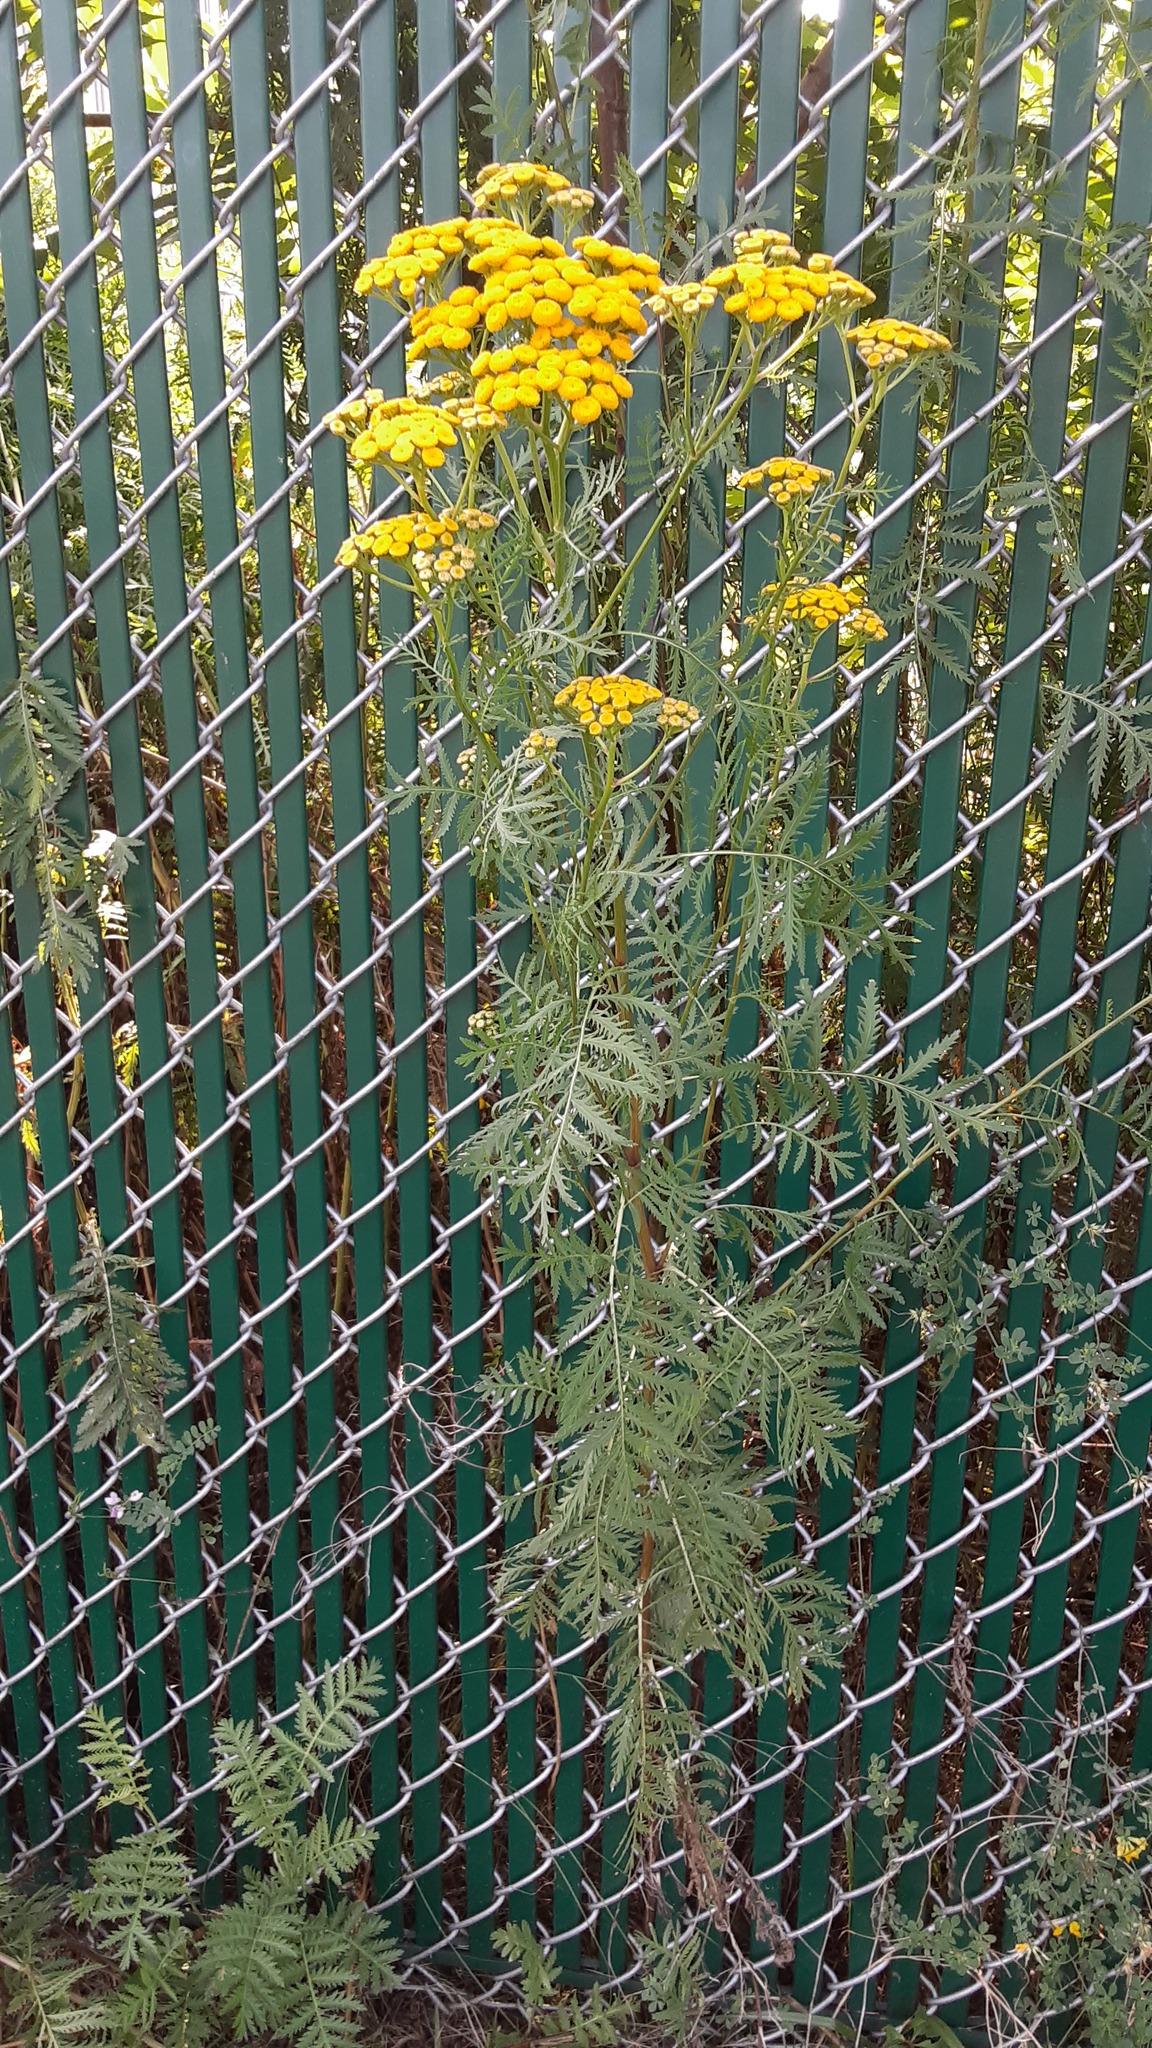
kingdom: Plantae
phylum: Tracheophyta
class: Magnoliopsida
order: Asterales
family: Asteraceae
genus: Tanacetum
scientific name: Tanacetum vulgare
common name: Common tansy
